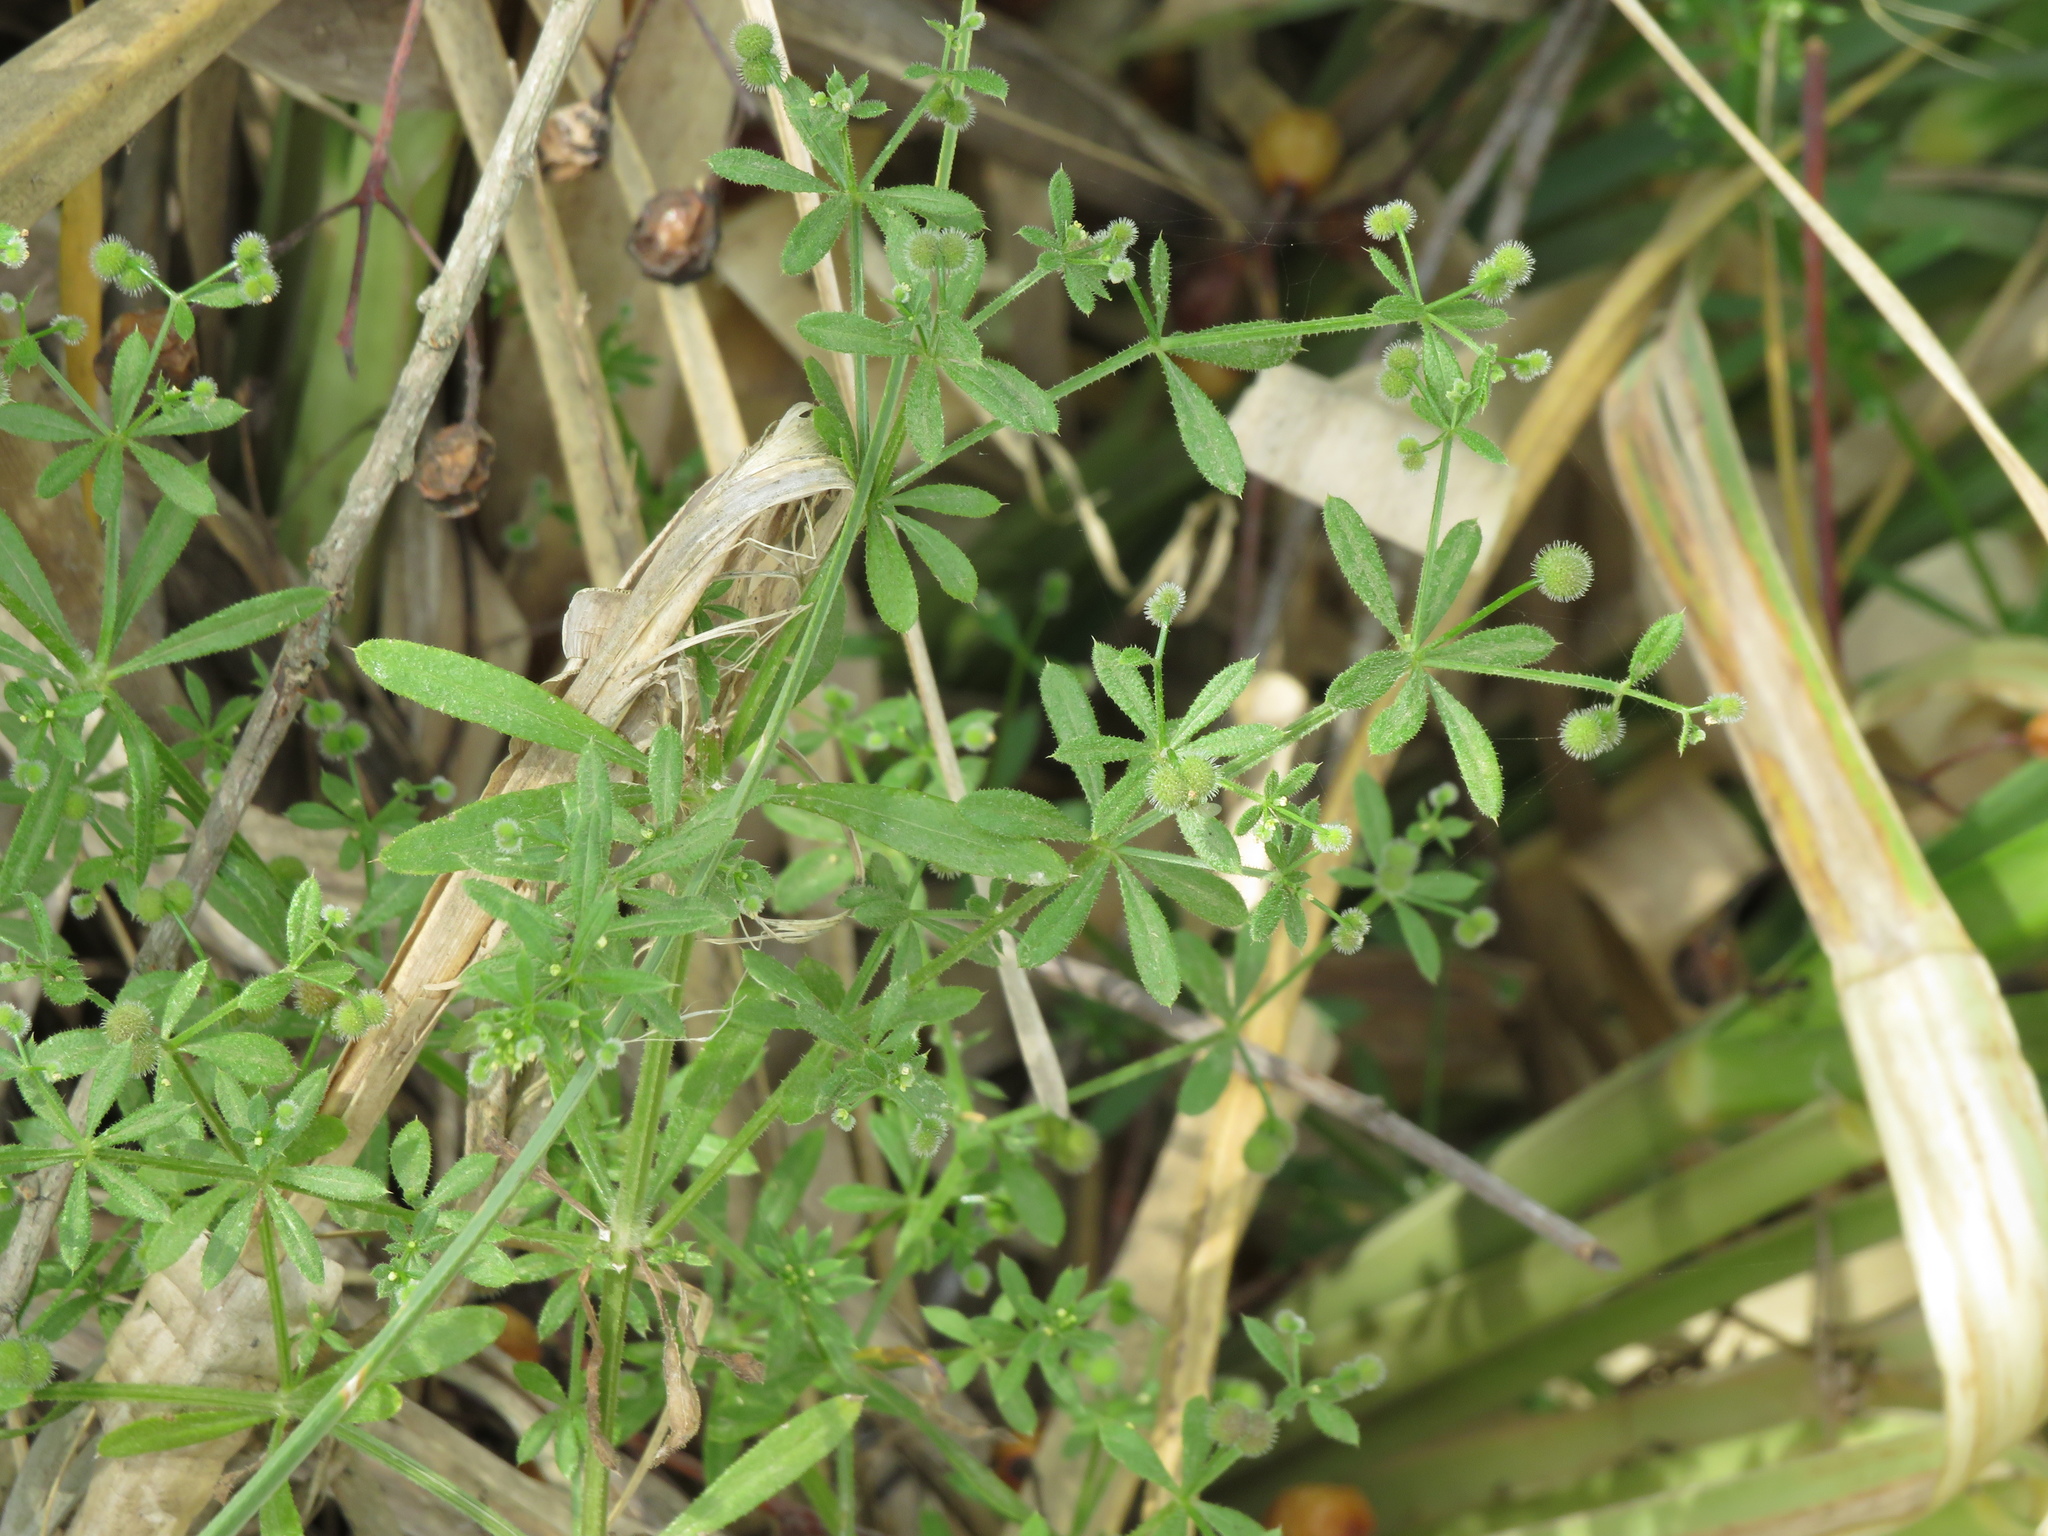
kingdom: Plantae
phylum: Tracheophyta
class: Magnoliopsida
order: Gentianales
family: Rubiaceae
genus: Galium
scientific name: Galium aparine
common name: Cleavers
